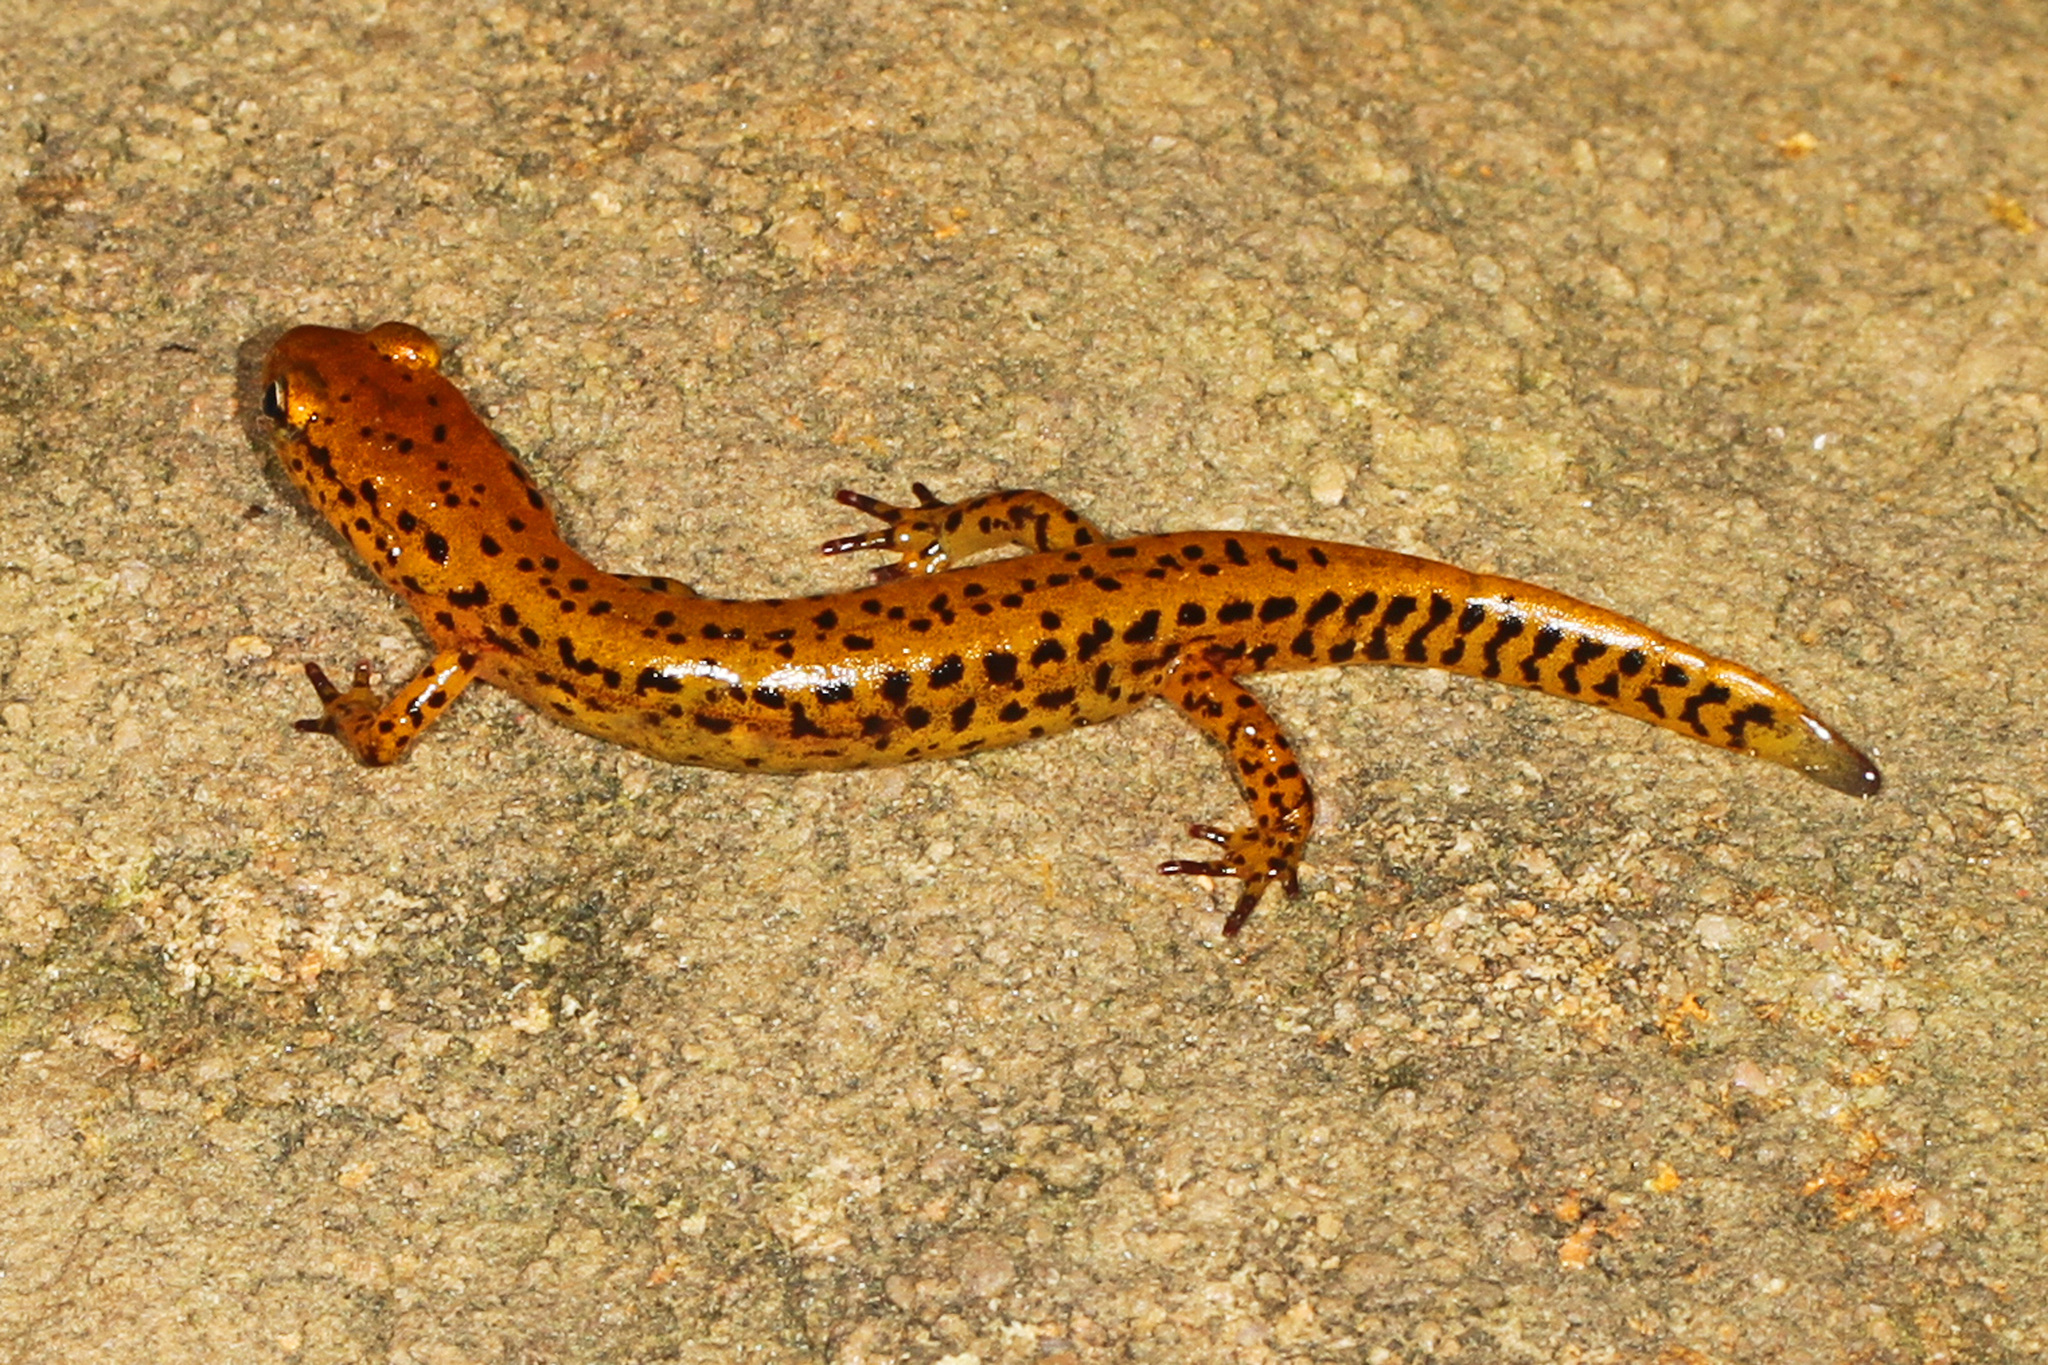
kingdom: Animalia
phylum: Chordata
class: Amphibia
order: Caudata
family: Plethodontidae
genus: Eurycea
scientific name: Eurycea longicauda
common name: Long-tailed salamander
